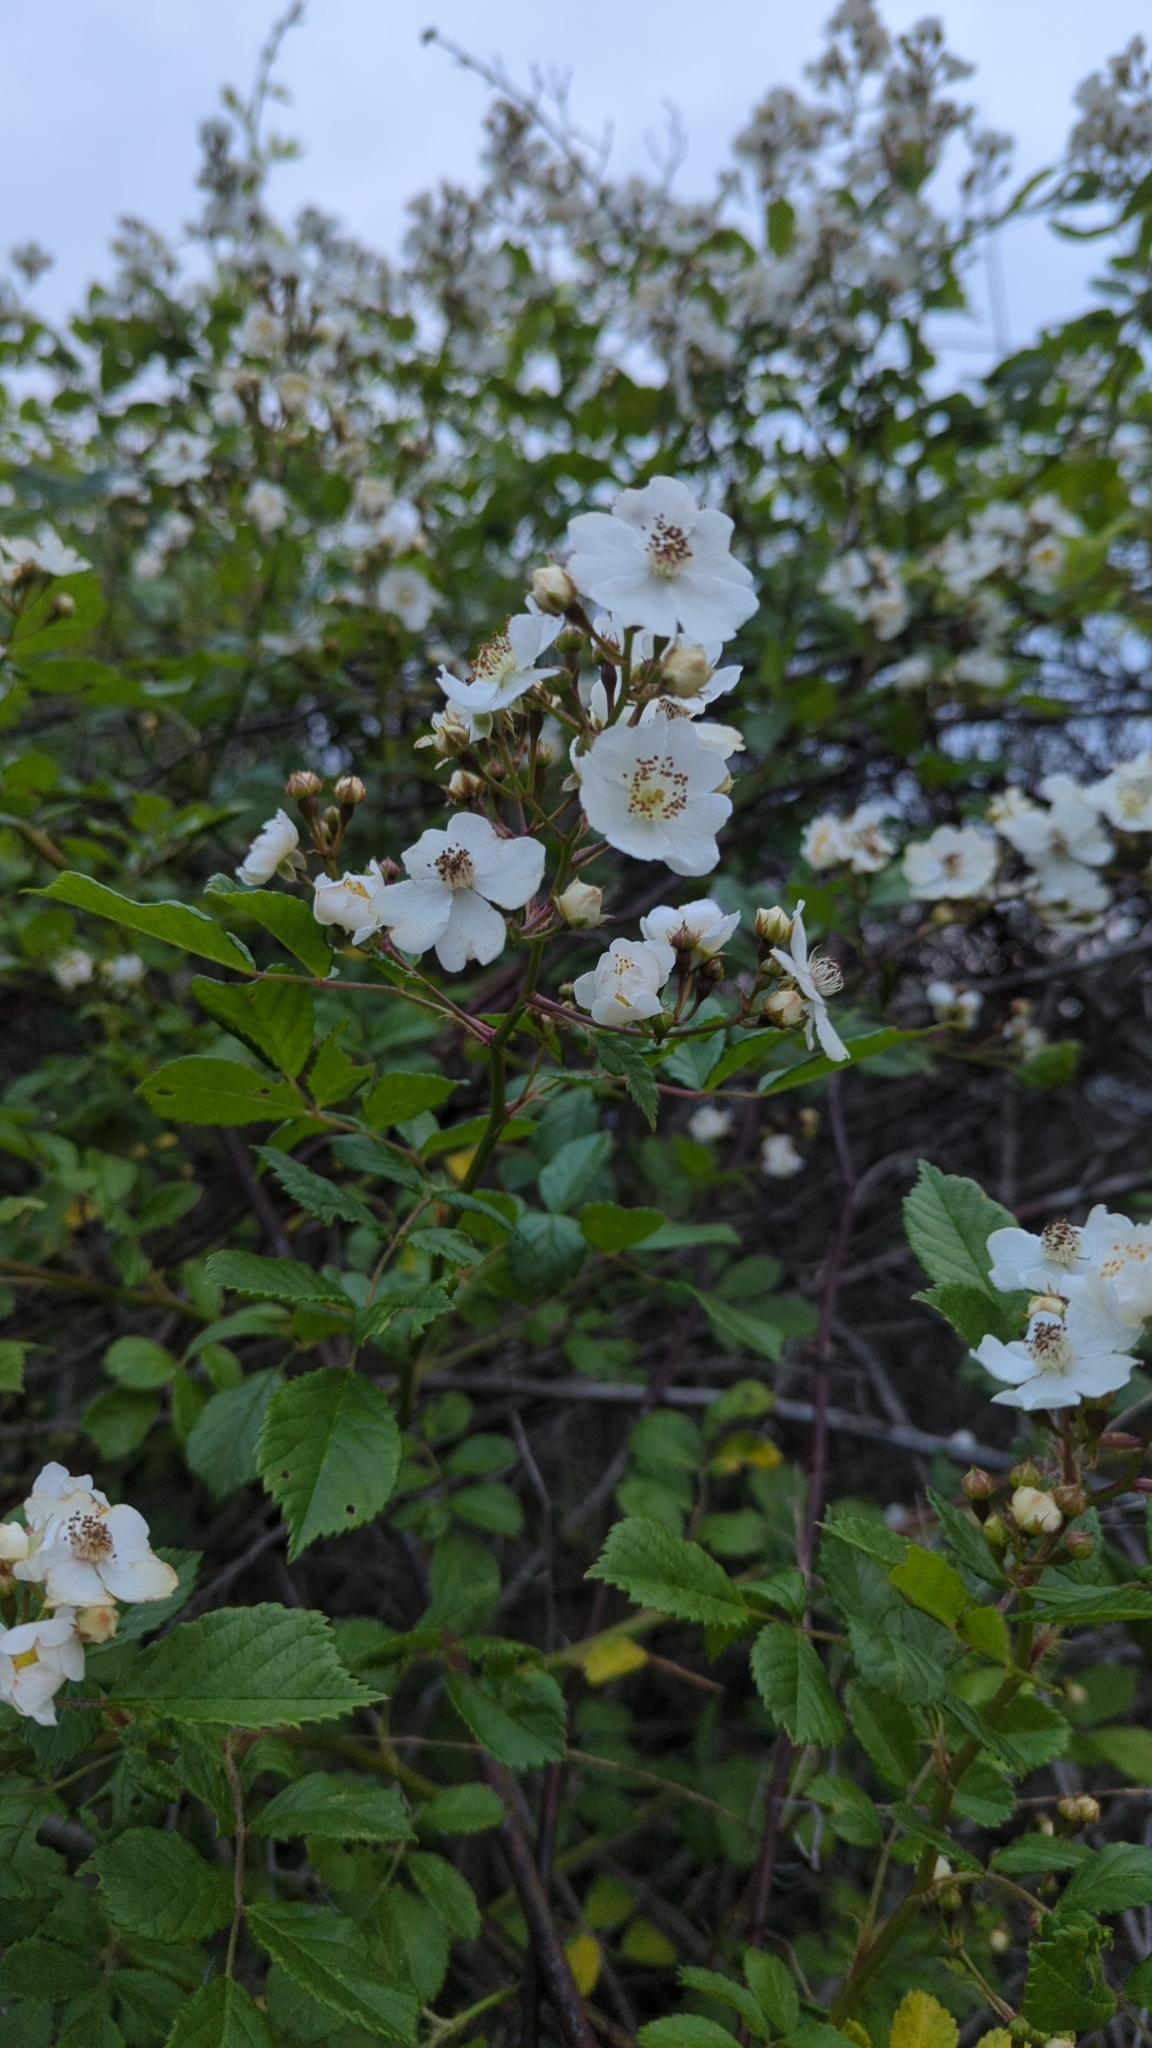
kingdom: Plantae
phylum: Tracheophyta
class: Magnoliopsida
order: Rosales
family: Rosaceae
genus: Rosa
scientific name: Rosa multiflora
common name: Multiflora rose
